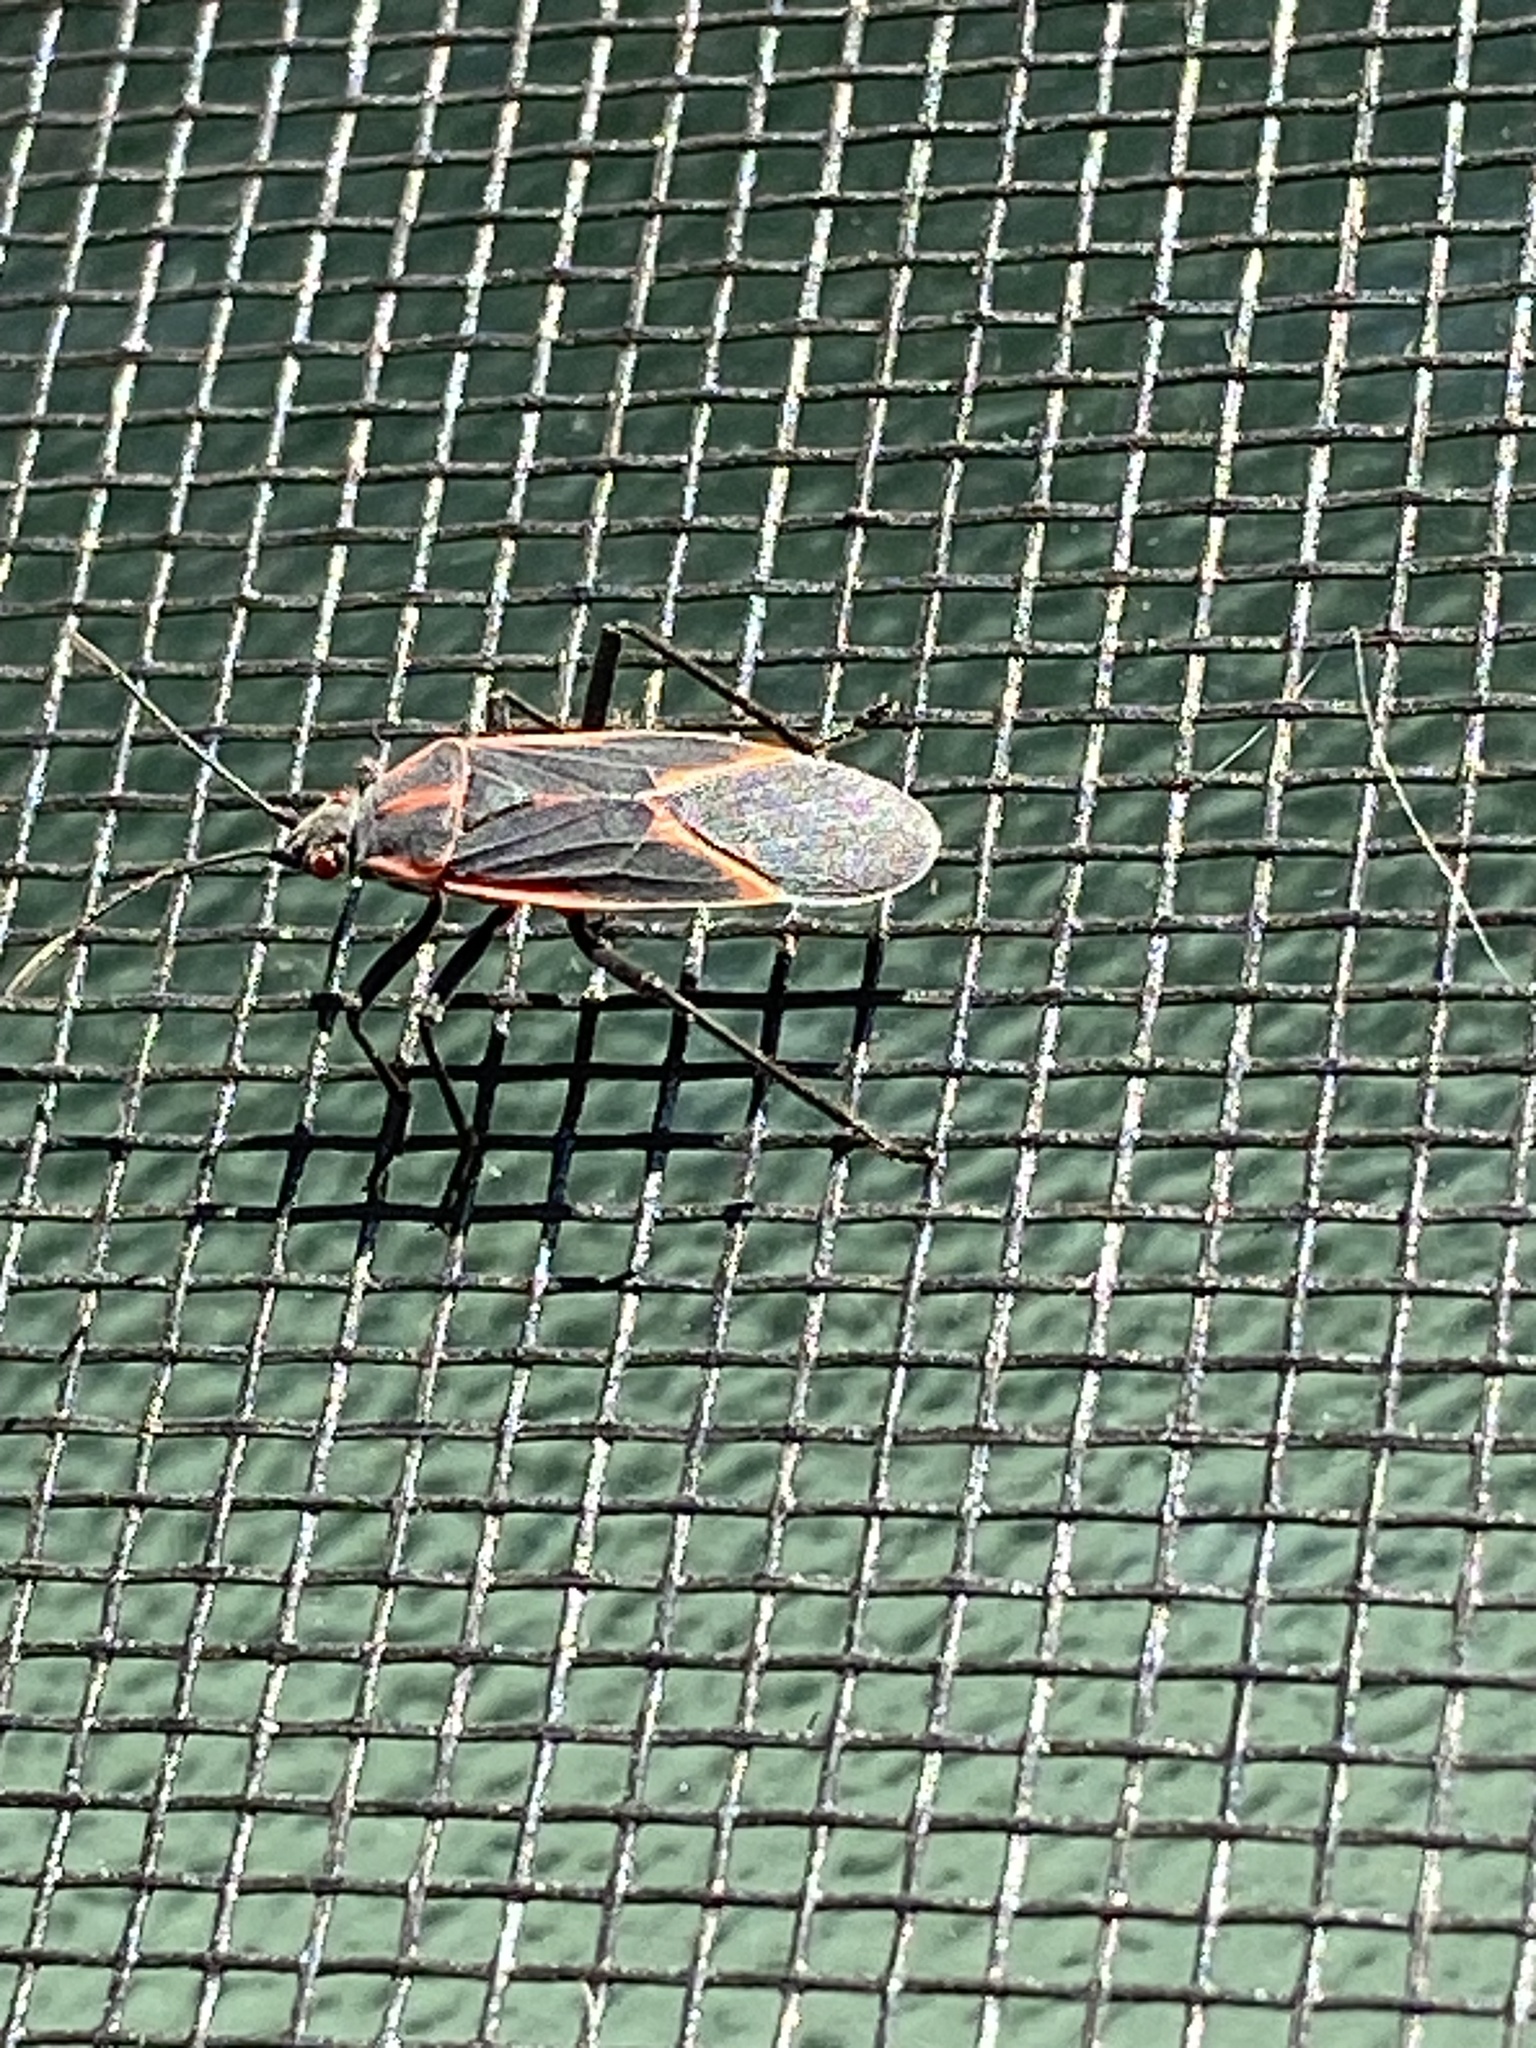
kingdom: Animalia
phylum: Arthropoda
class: Insecta
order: Hemiptera
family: Rhopalidae
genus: Boisea
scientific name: Boisea trivittata
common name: Boxelder bug
